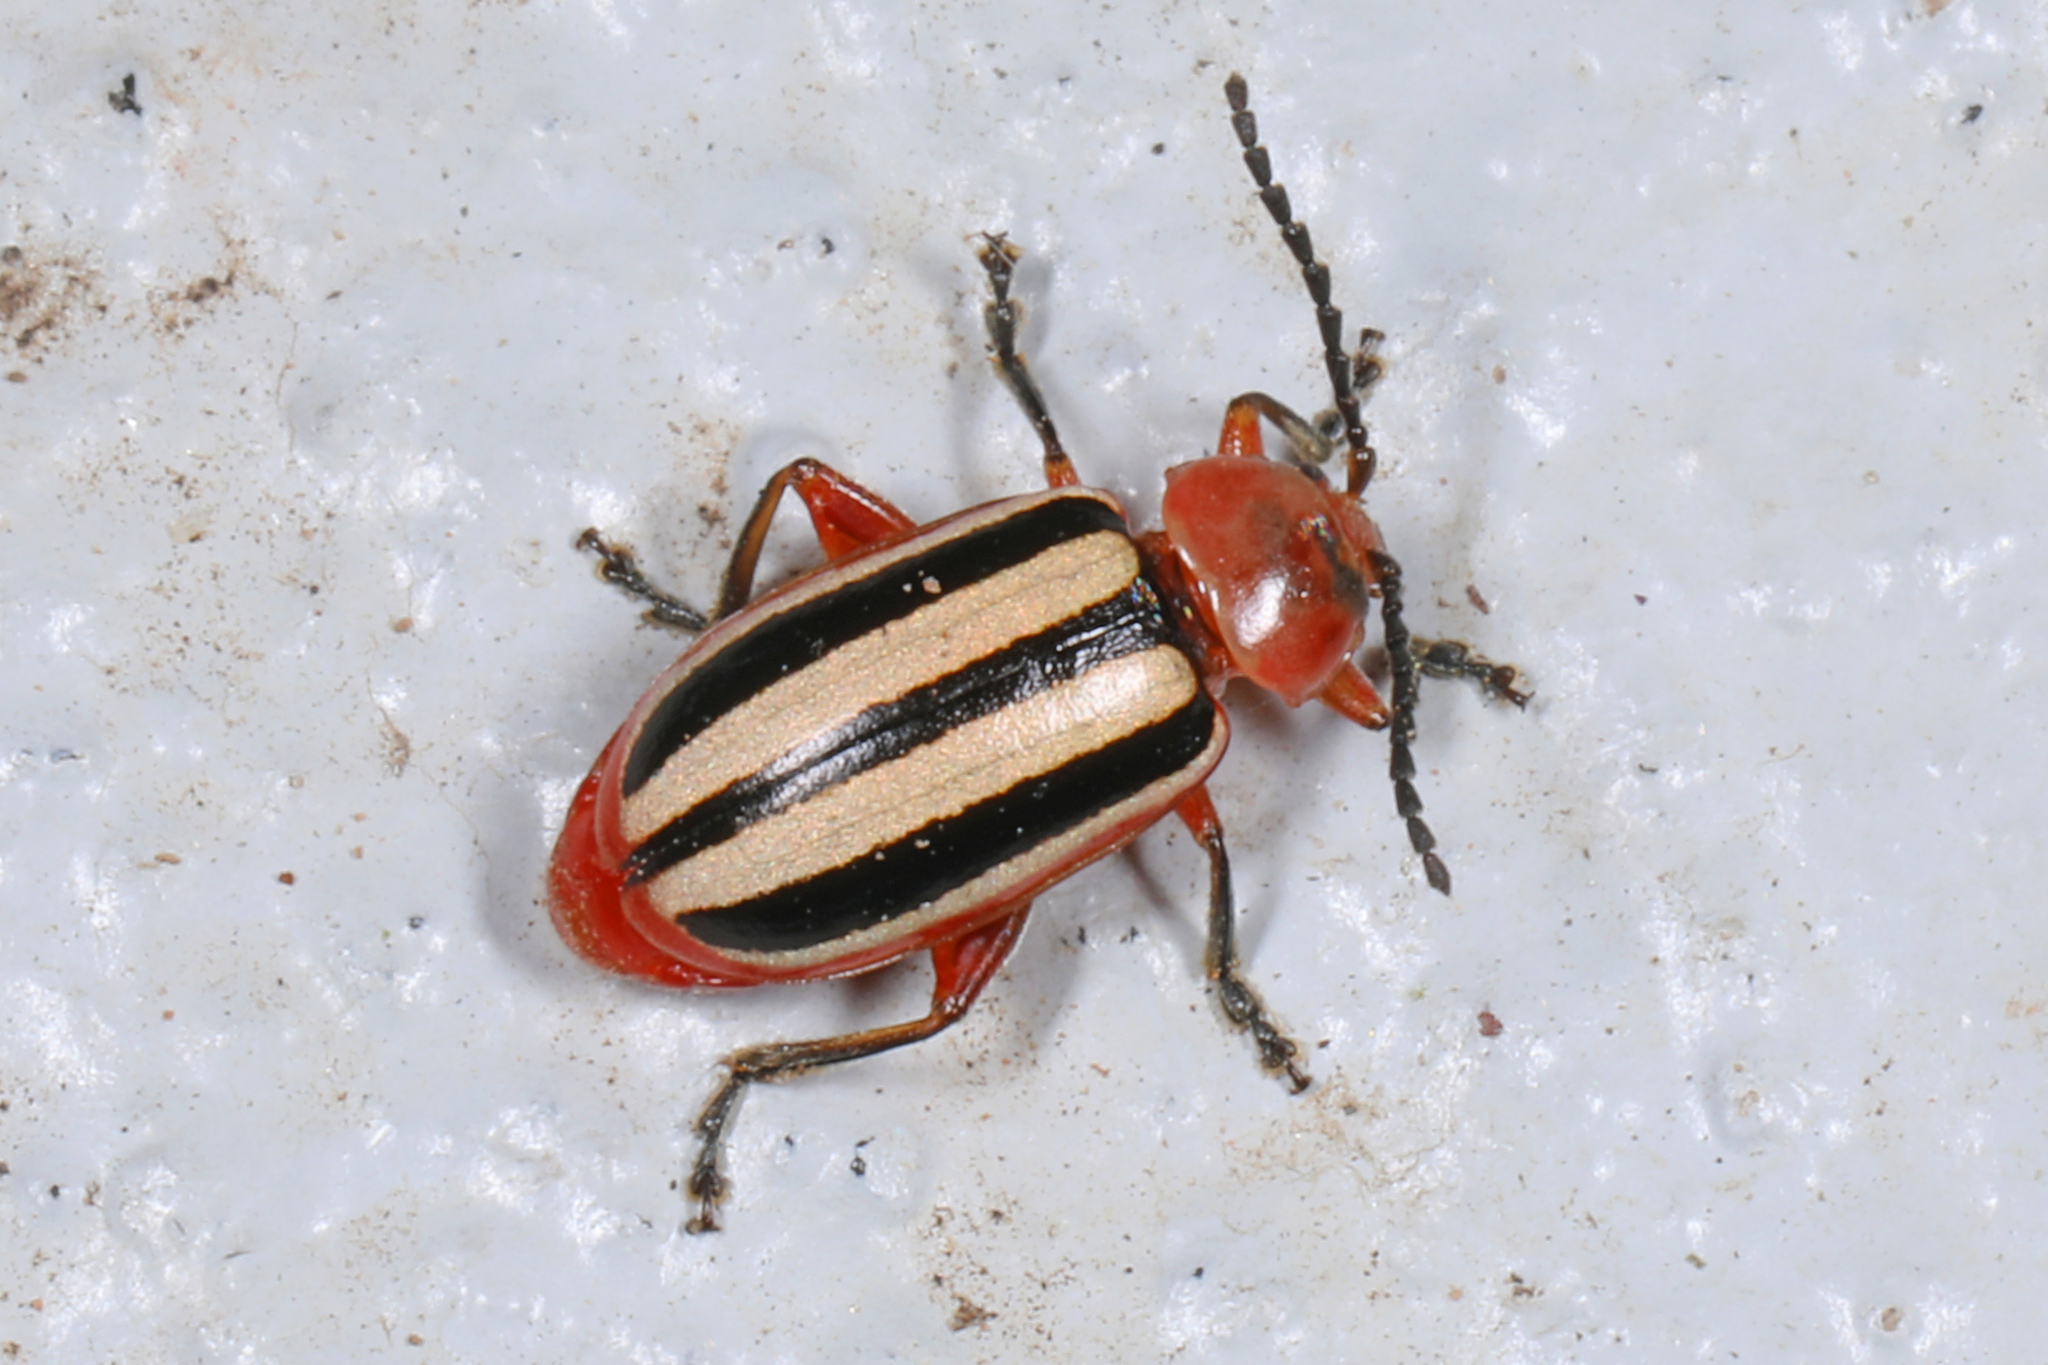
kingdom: Animalia
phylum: Arthropoda
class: Insecta
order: Coleoptera
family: Chrysomelidae
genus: Disonycha
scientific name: Disonycha leptolineata
